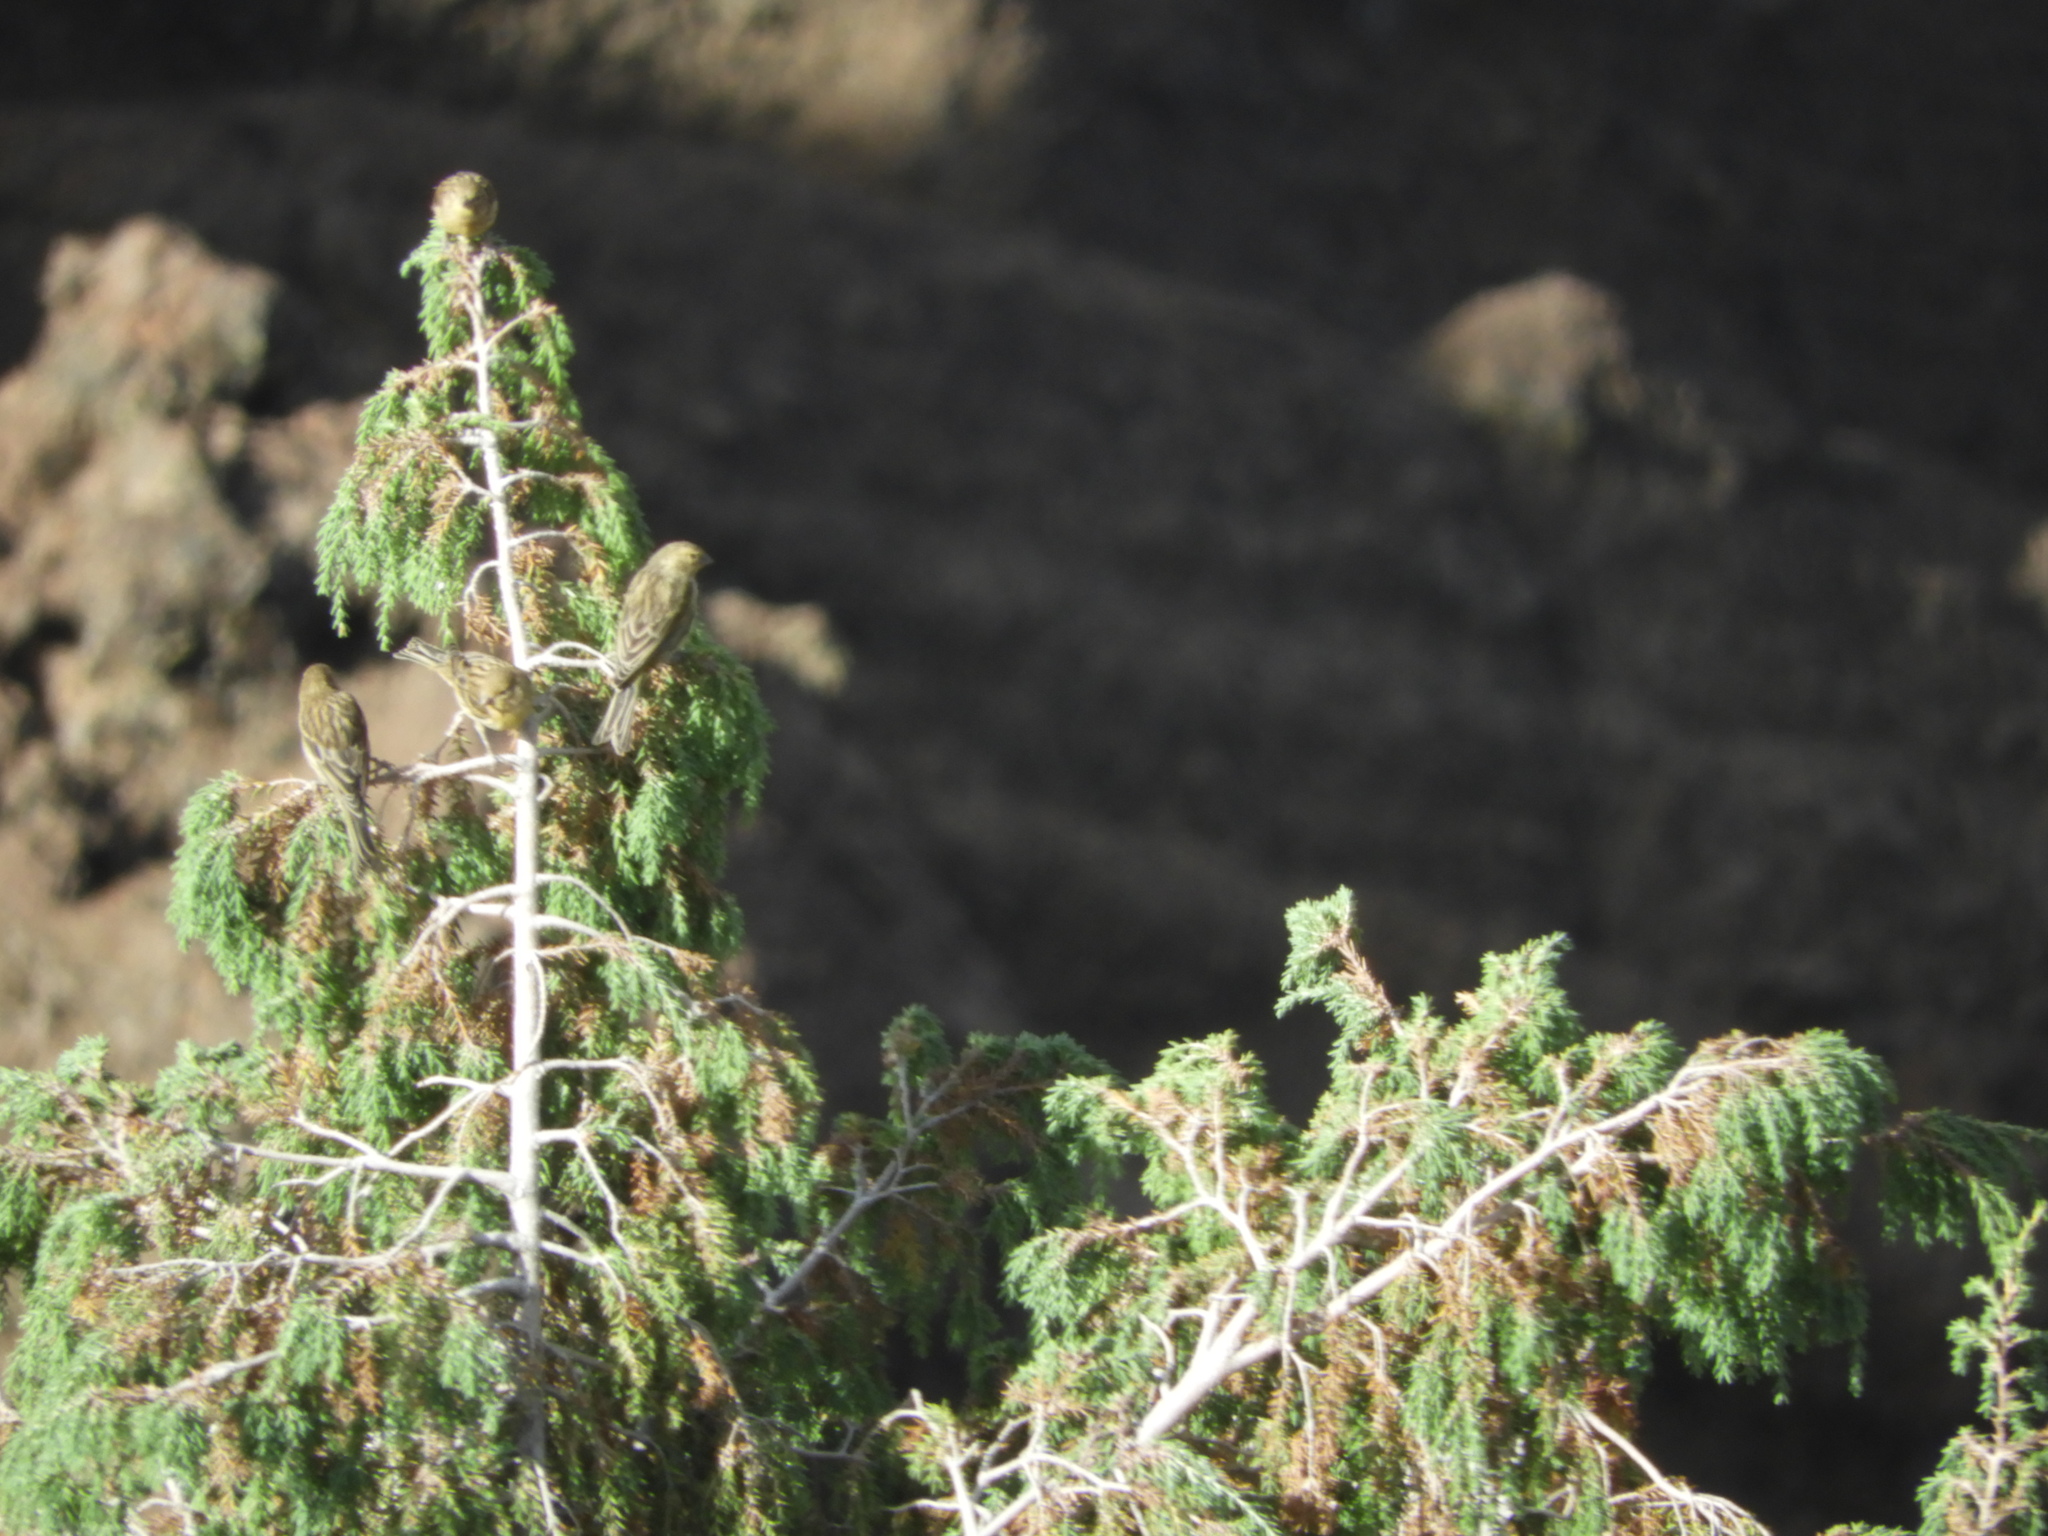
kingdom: Animalia
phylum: Chordata
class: Aves
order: Passeriformes
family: Fringillidae
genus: Serinus
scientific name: Serinus canaria
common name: Atlantic canary
